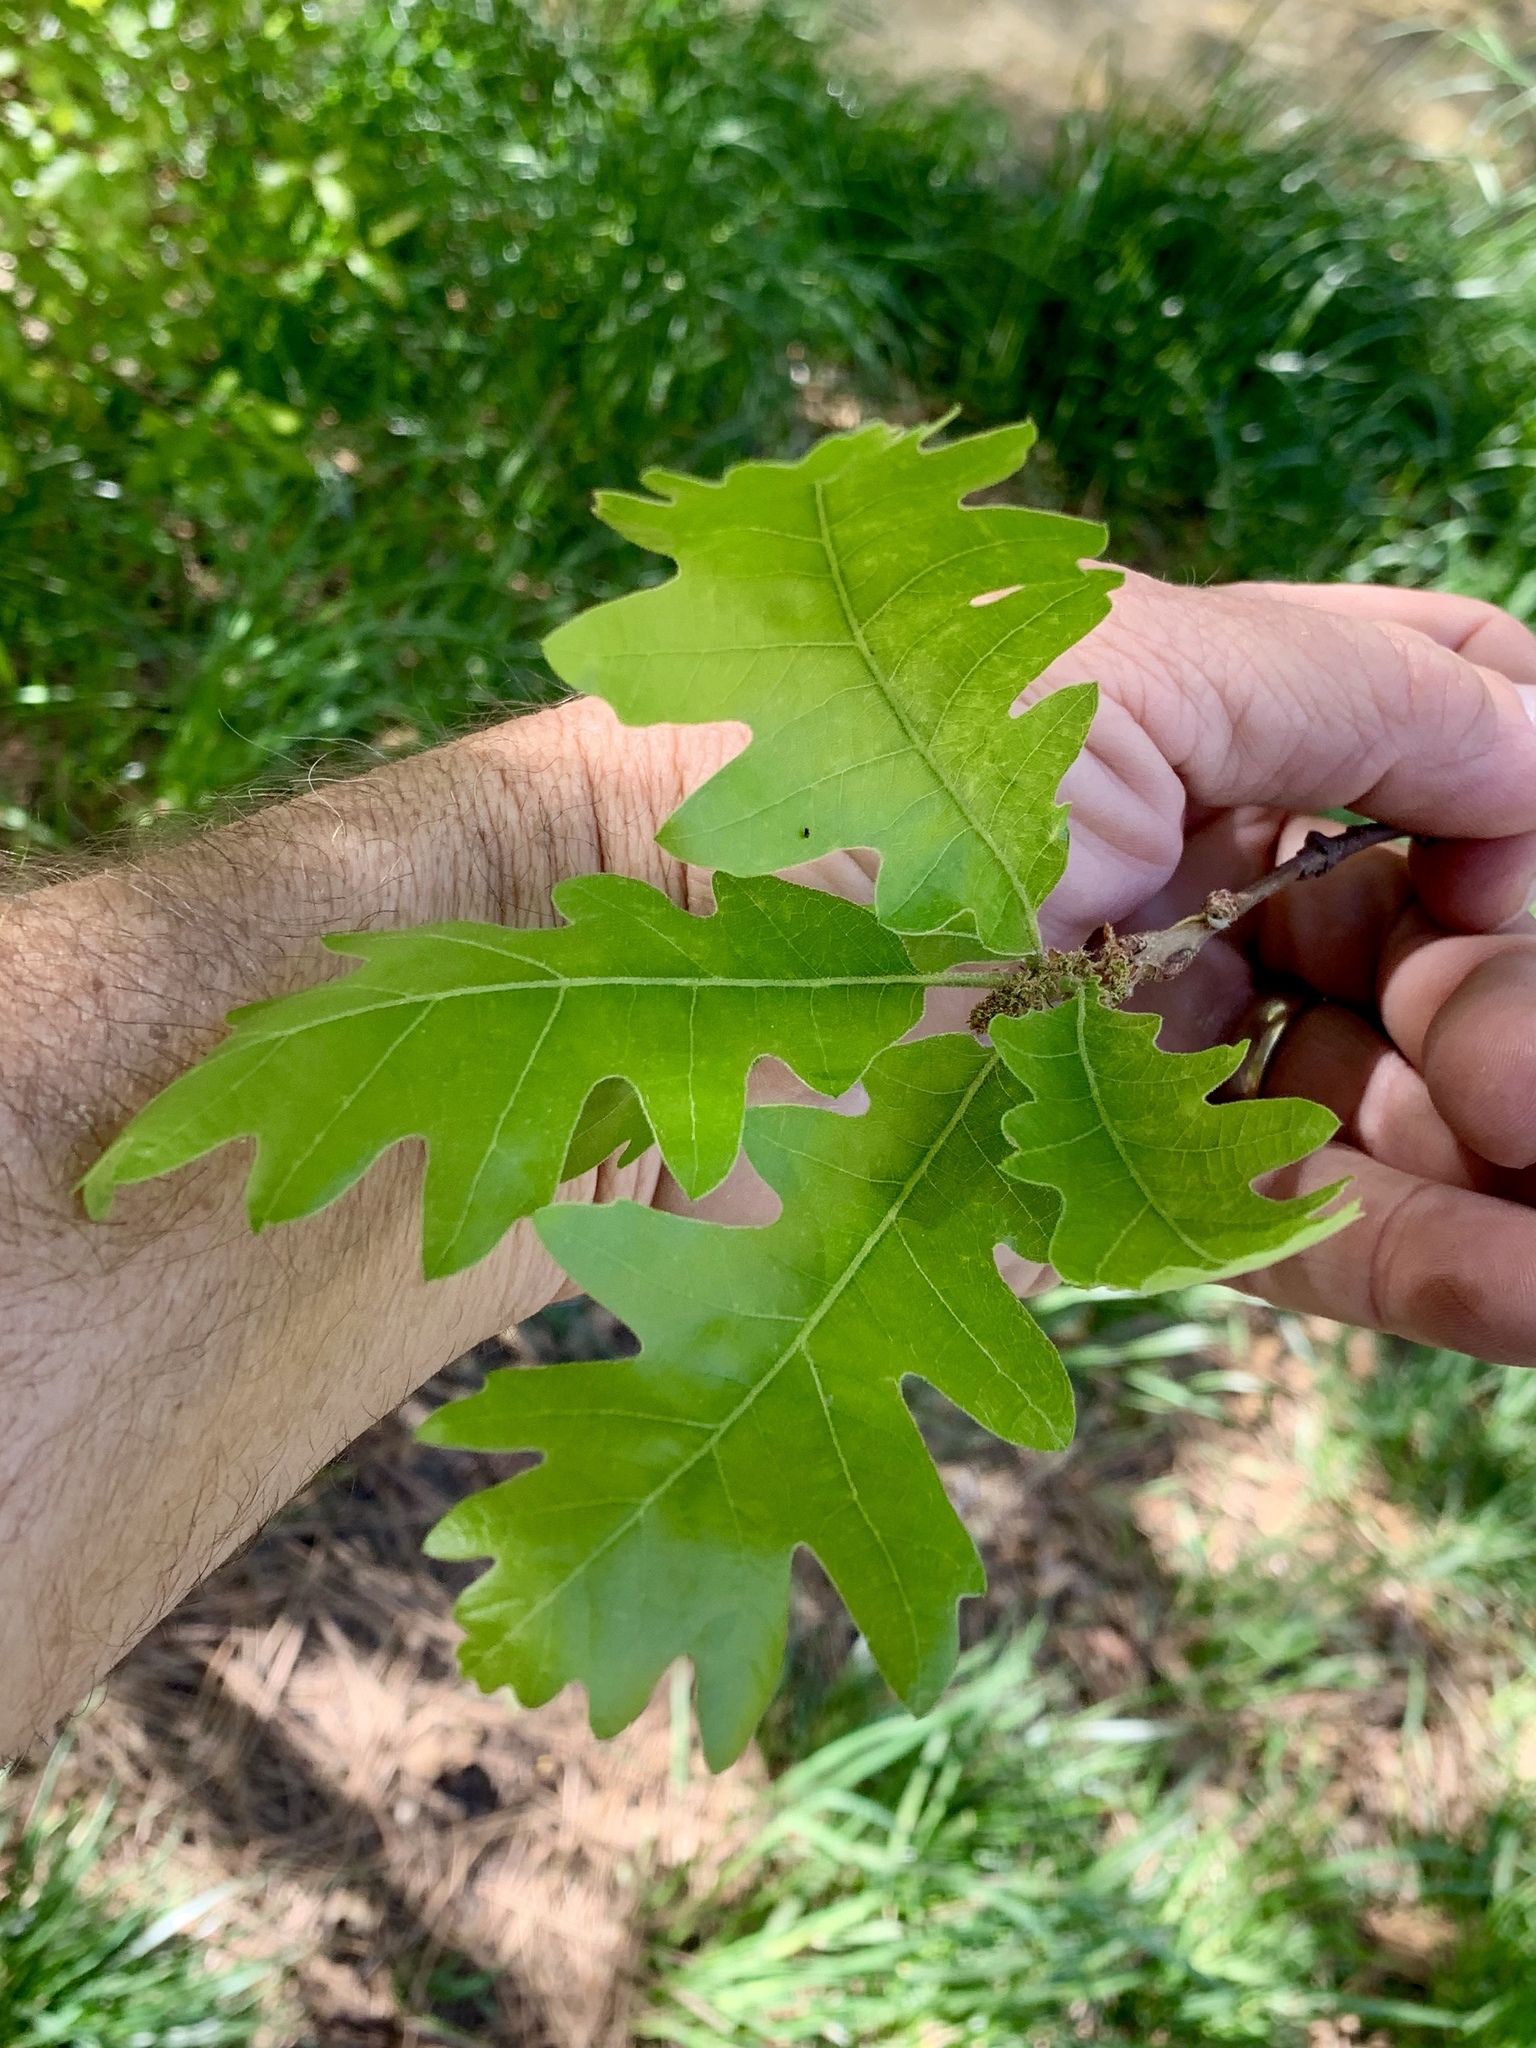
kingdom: Plantae
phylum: Tracheophyta
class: Magnoliopsida
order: Fagales
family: Fagaceae
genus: Quercus
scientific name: Quercus gambelii
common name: Gambel oak
